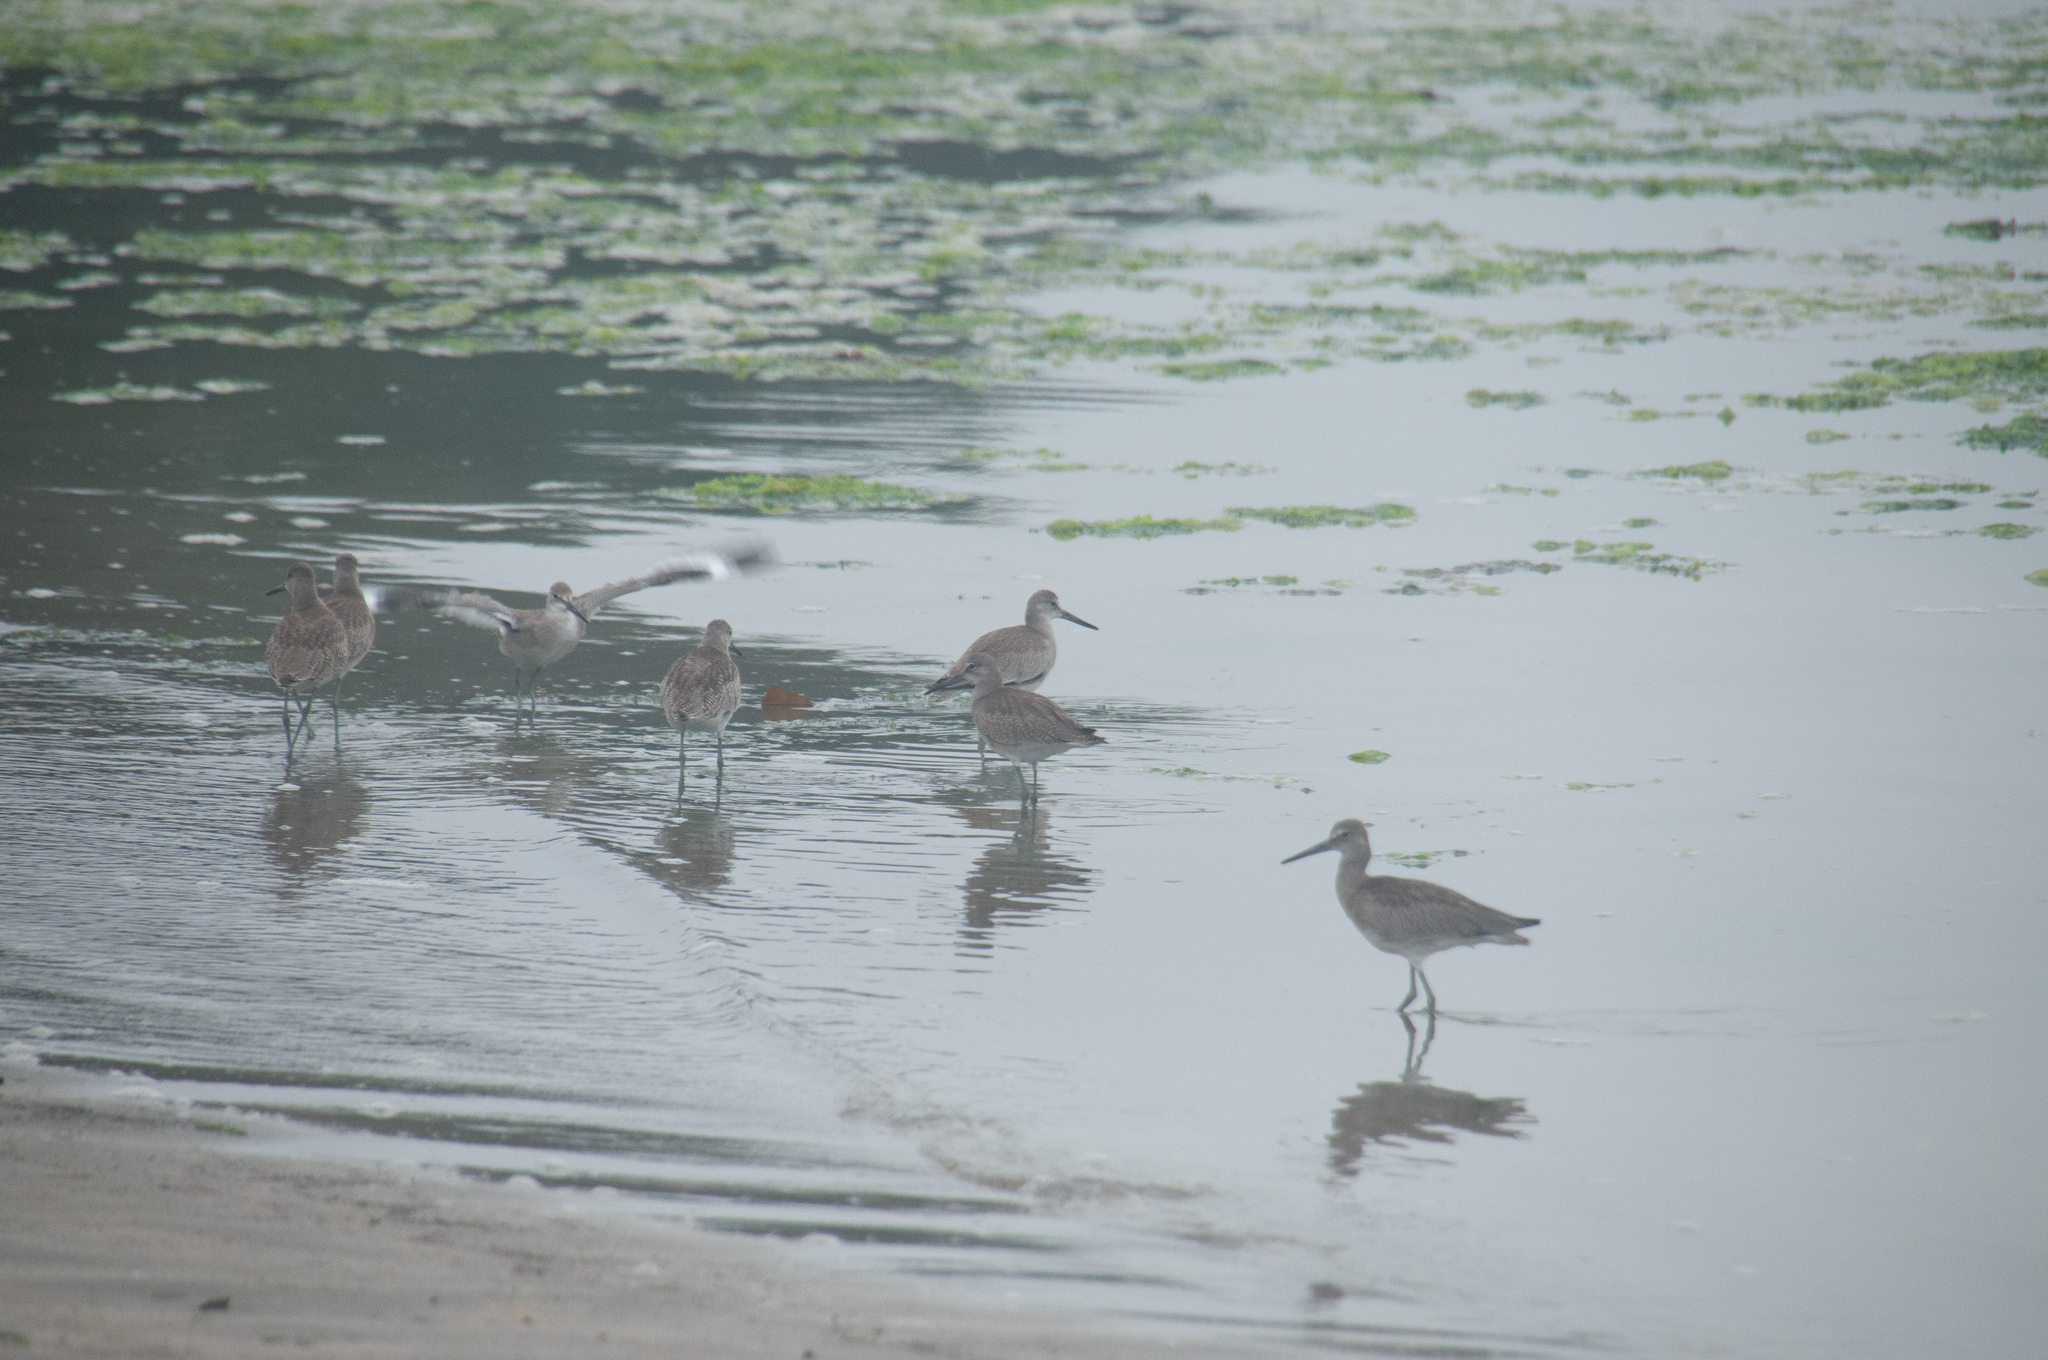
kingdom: Animalia
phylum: Chordata
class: Aves
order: Charadriiformes
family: Scolopacidae
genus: Tringa
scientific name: Tringa semipalmata
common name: Willet
